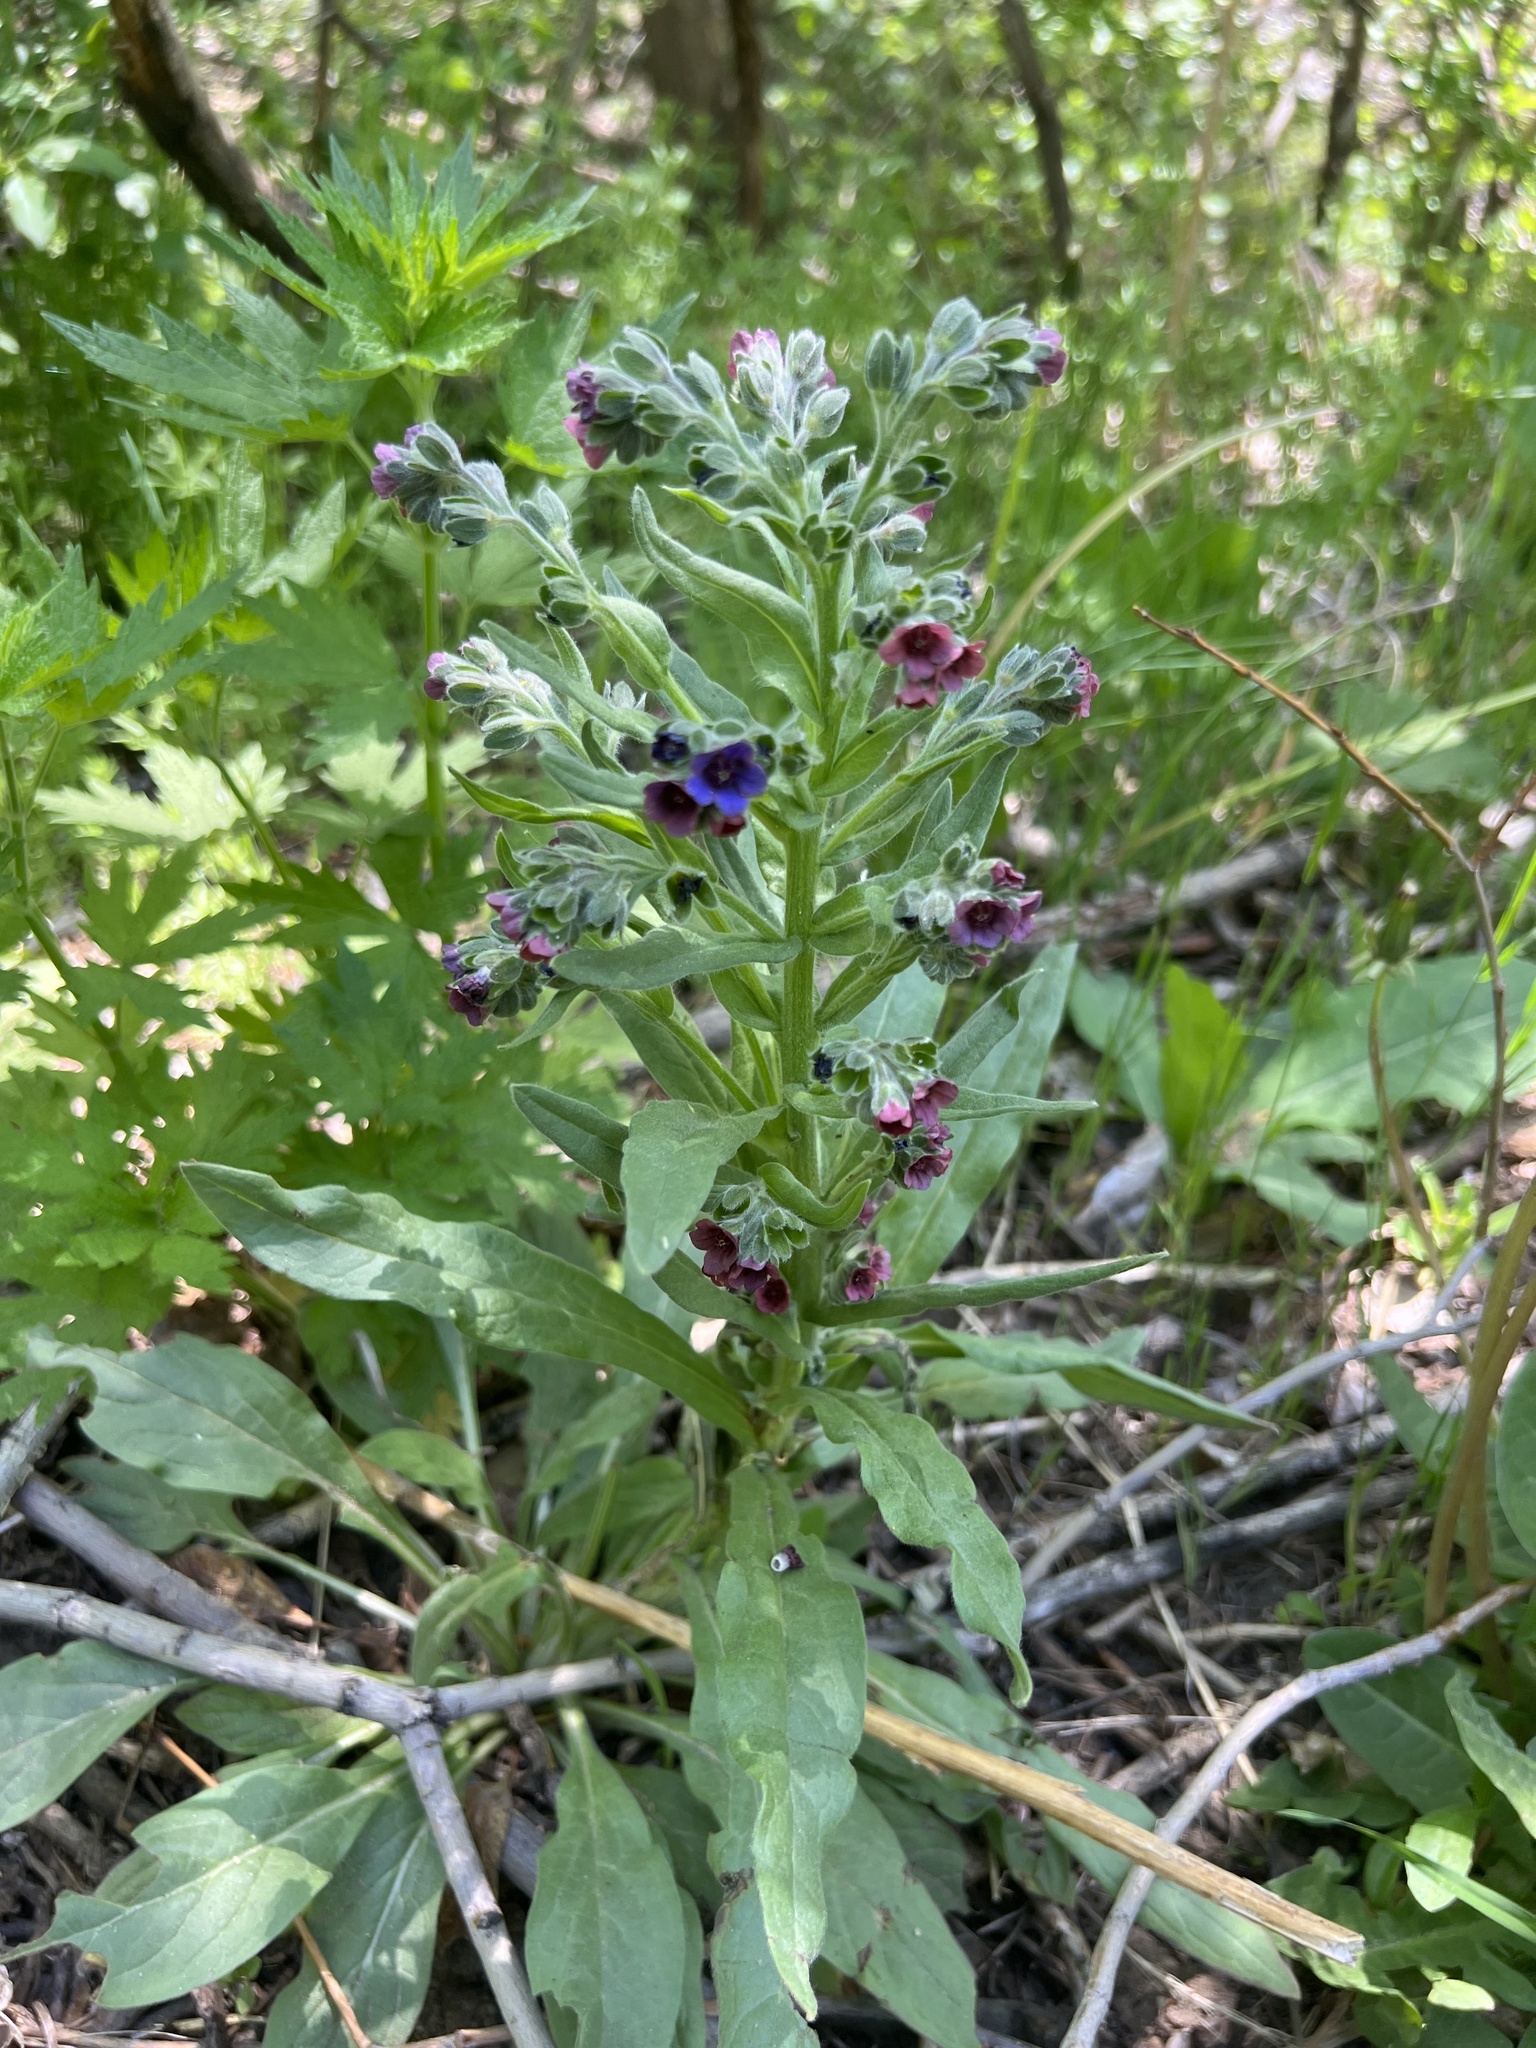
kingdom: Plantae
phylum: Tracheophyta
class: Magnoliopsida
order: Boraginales
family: Boraginaceae
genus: Cynoglossum
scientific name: Cynoglossum officinale
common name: Hound's-tongue
